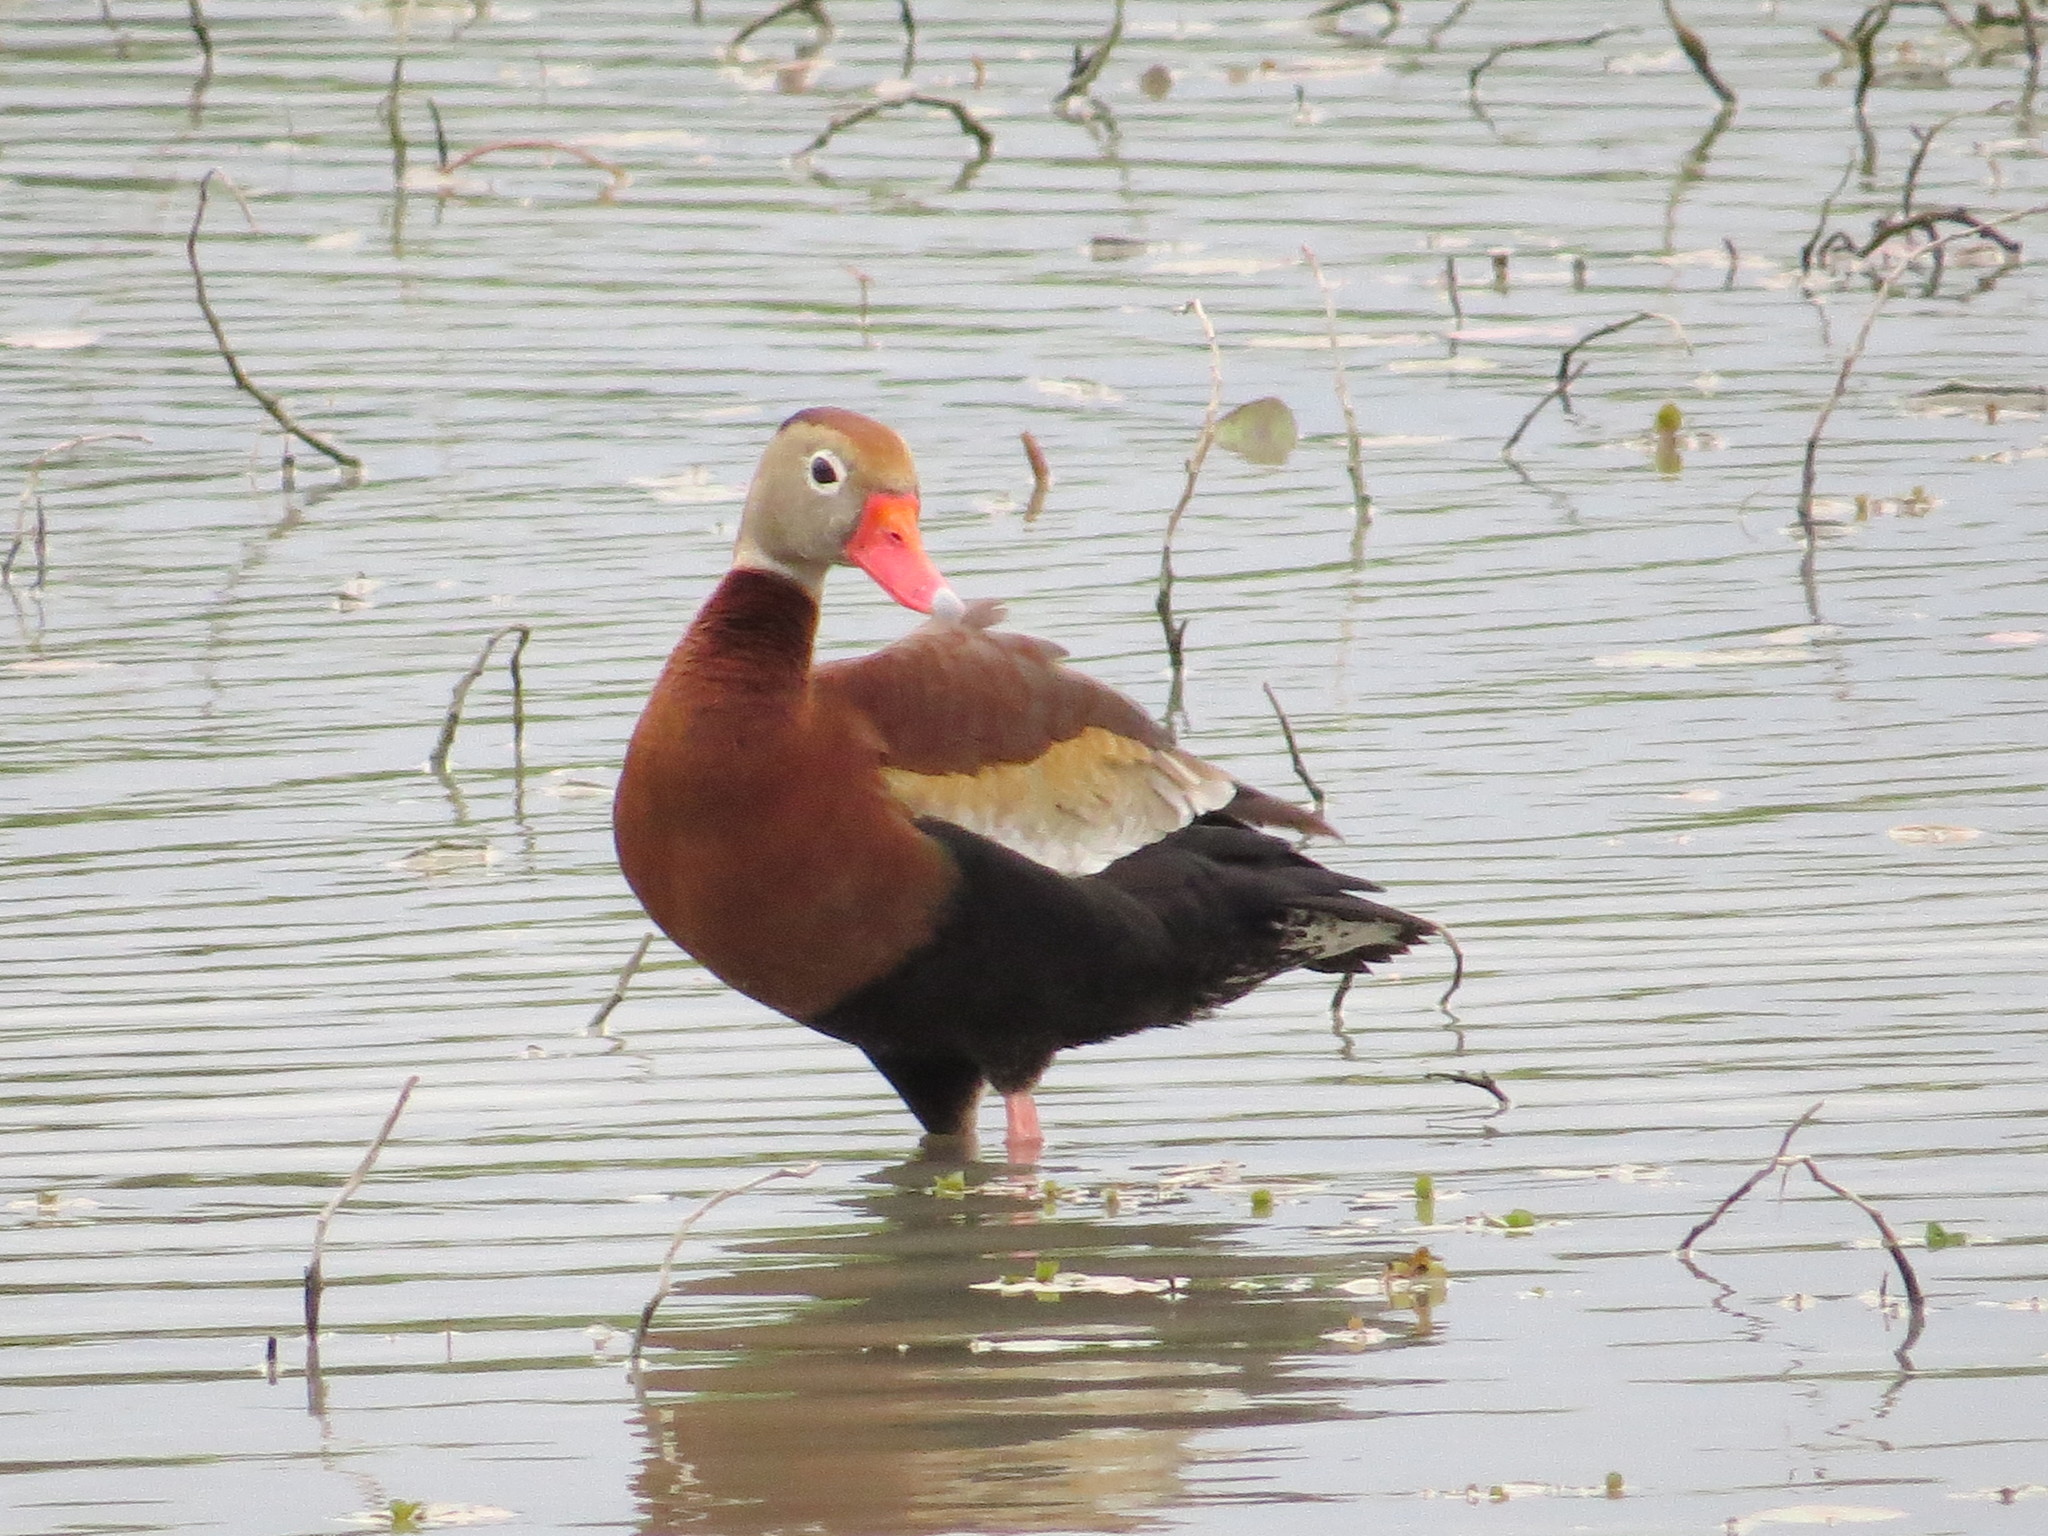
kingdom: Animalia
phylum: Chordata
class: Aves
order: Anseriformes
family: Anatidae
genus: Dendrocygna
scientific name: Dendrocygna autumnalis
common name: Black-bellied whistling duck
